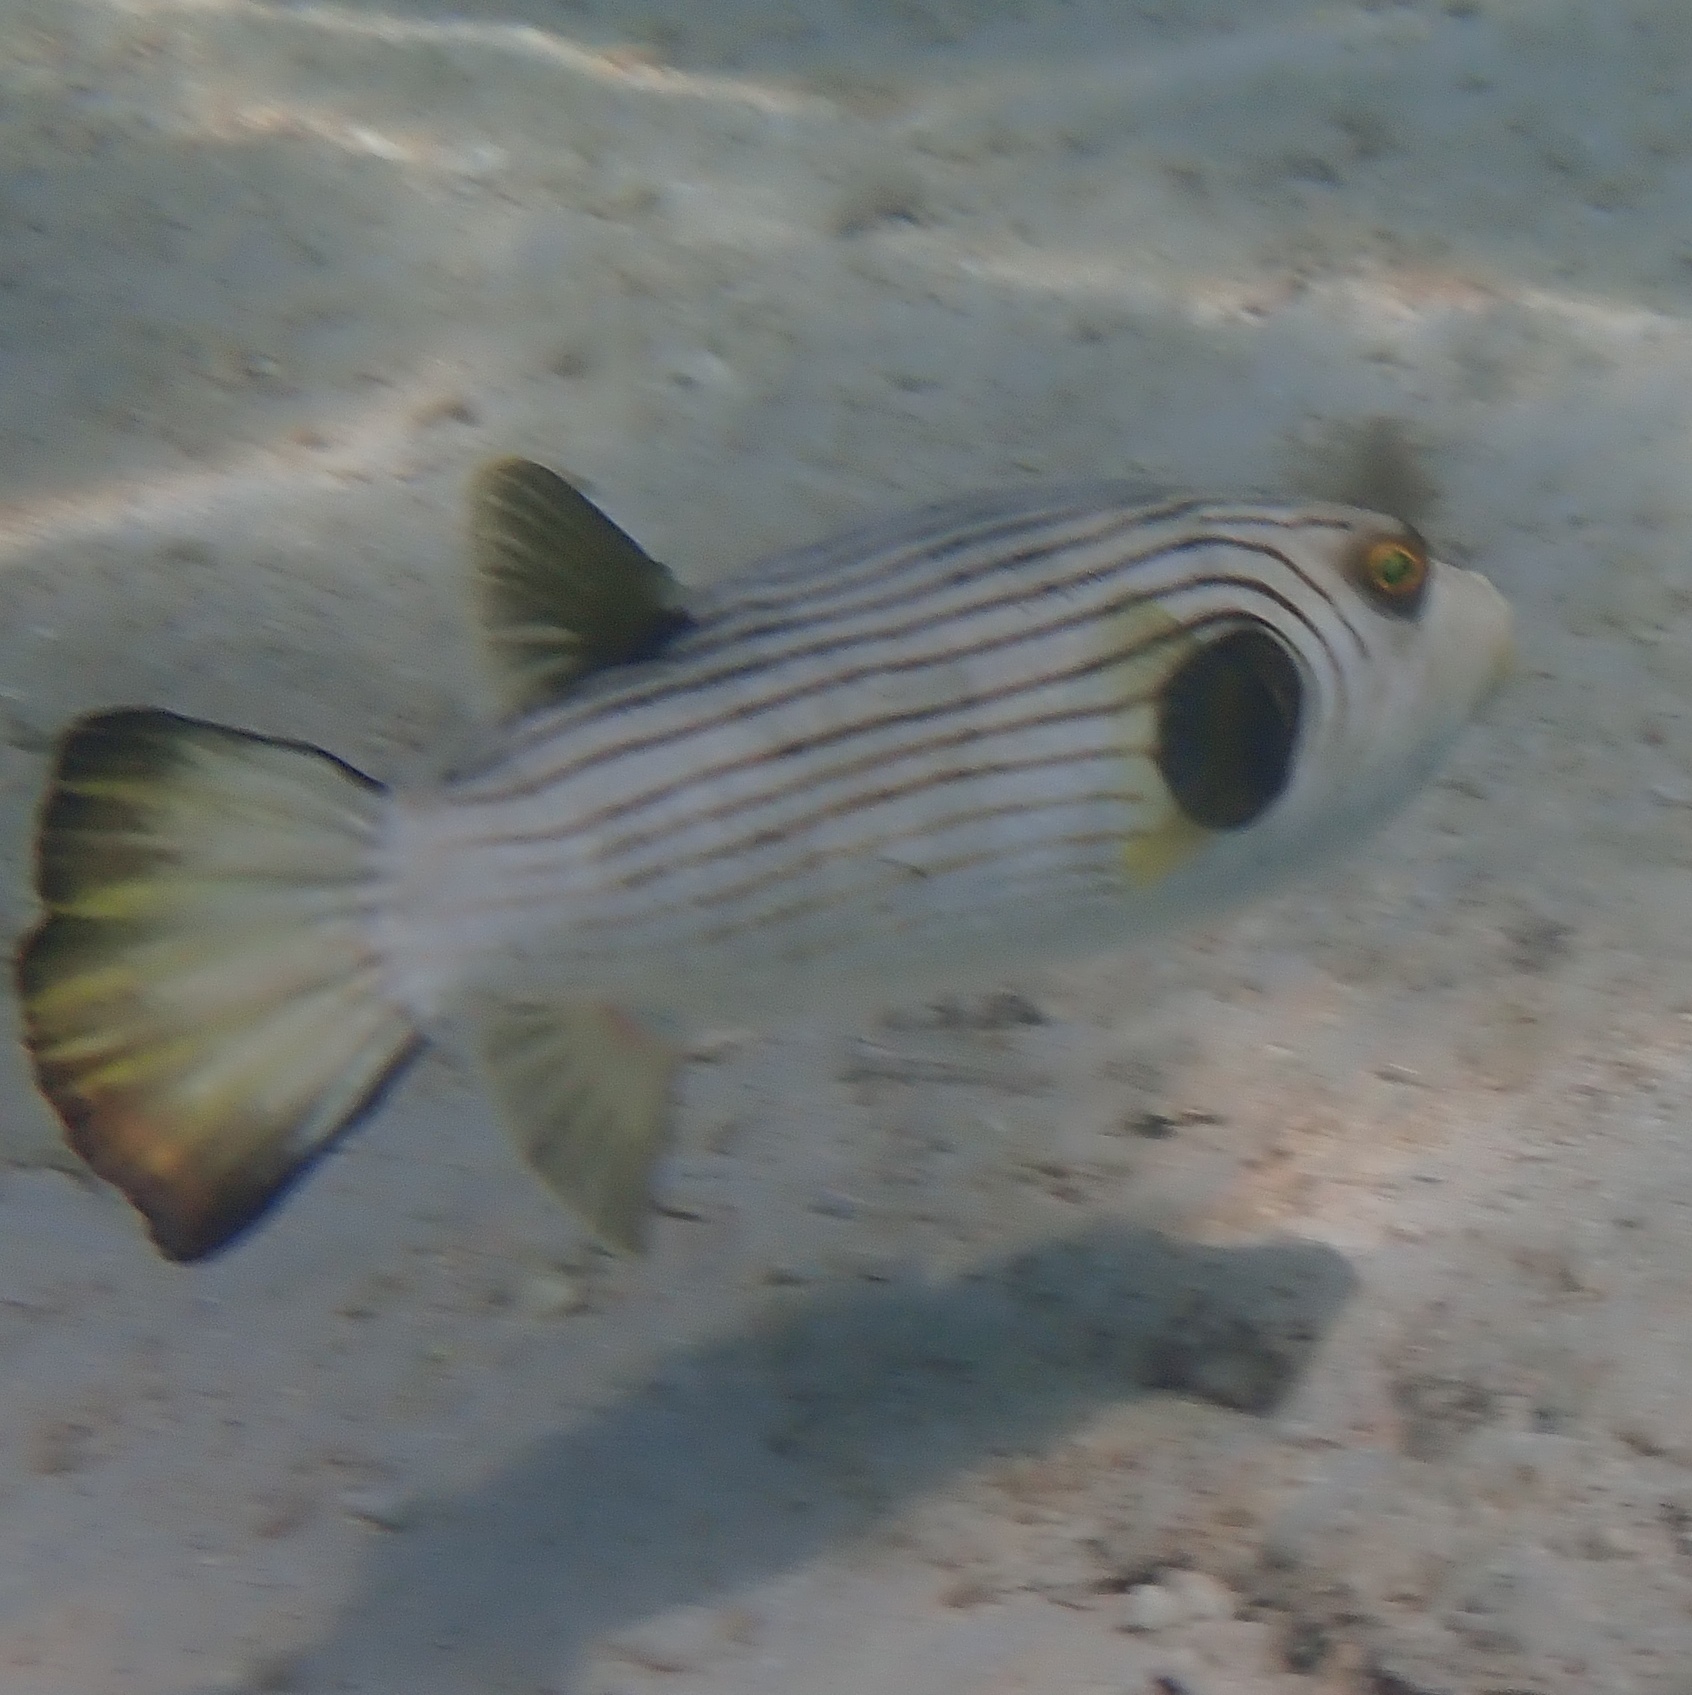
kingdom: Animalia
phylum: Chordata
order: Tetraodontiformes
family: Tetraodontidae
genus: Arothron
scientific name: Arothron manilensis
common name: Narrow-lined puffer
